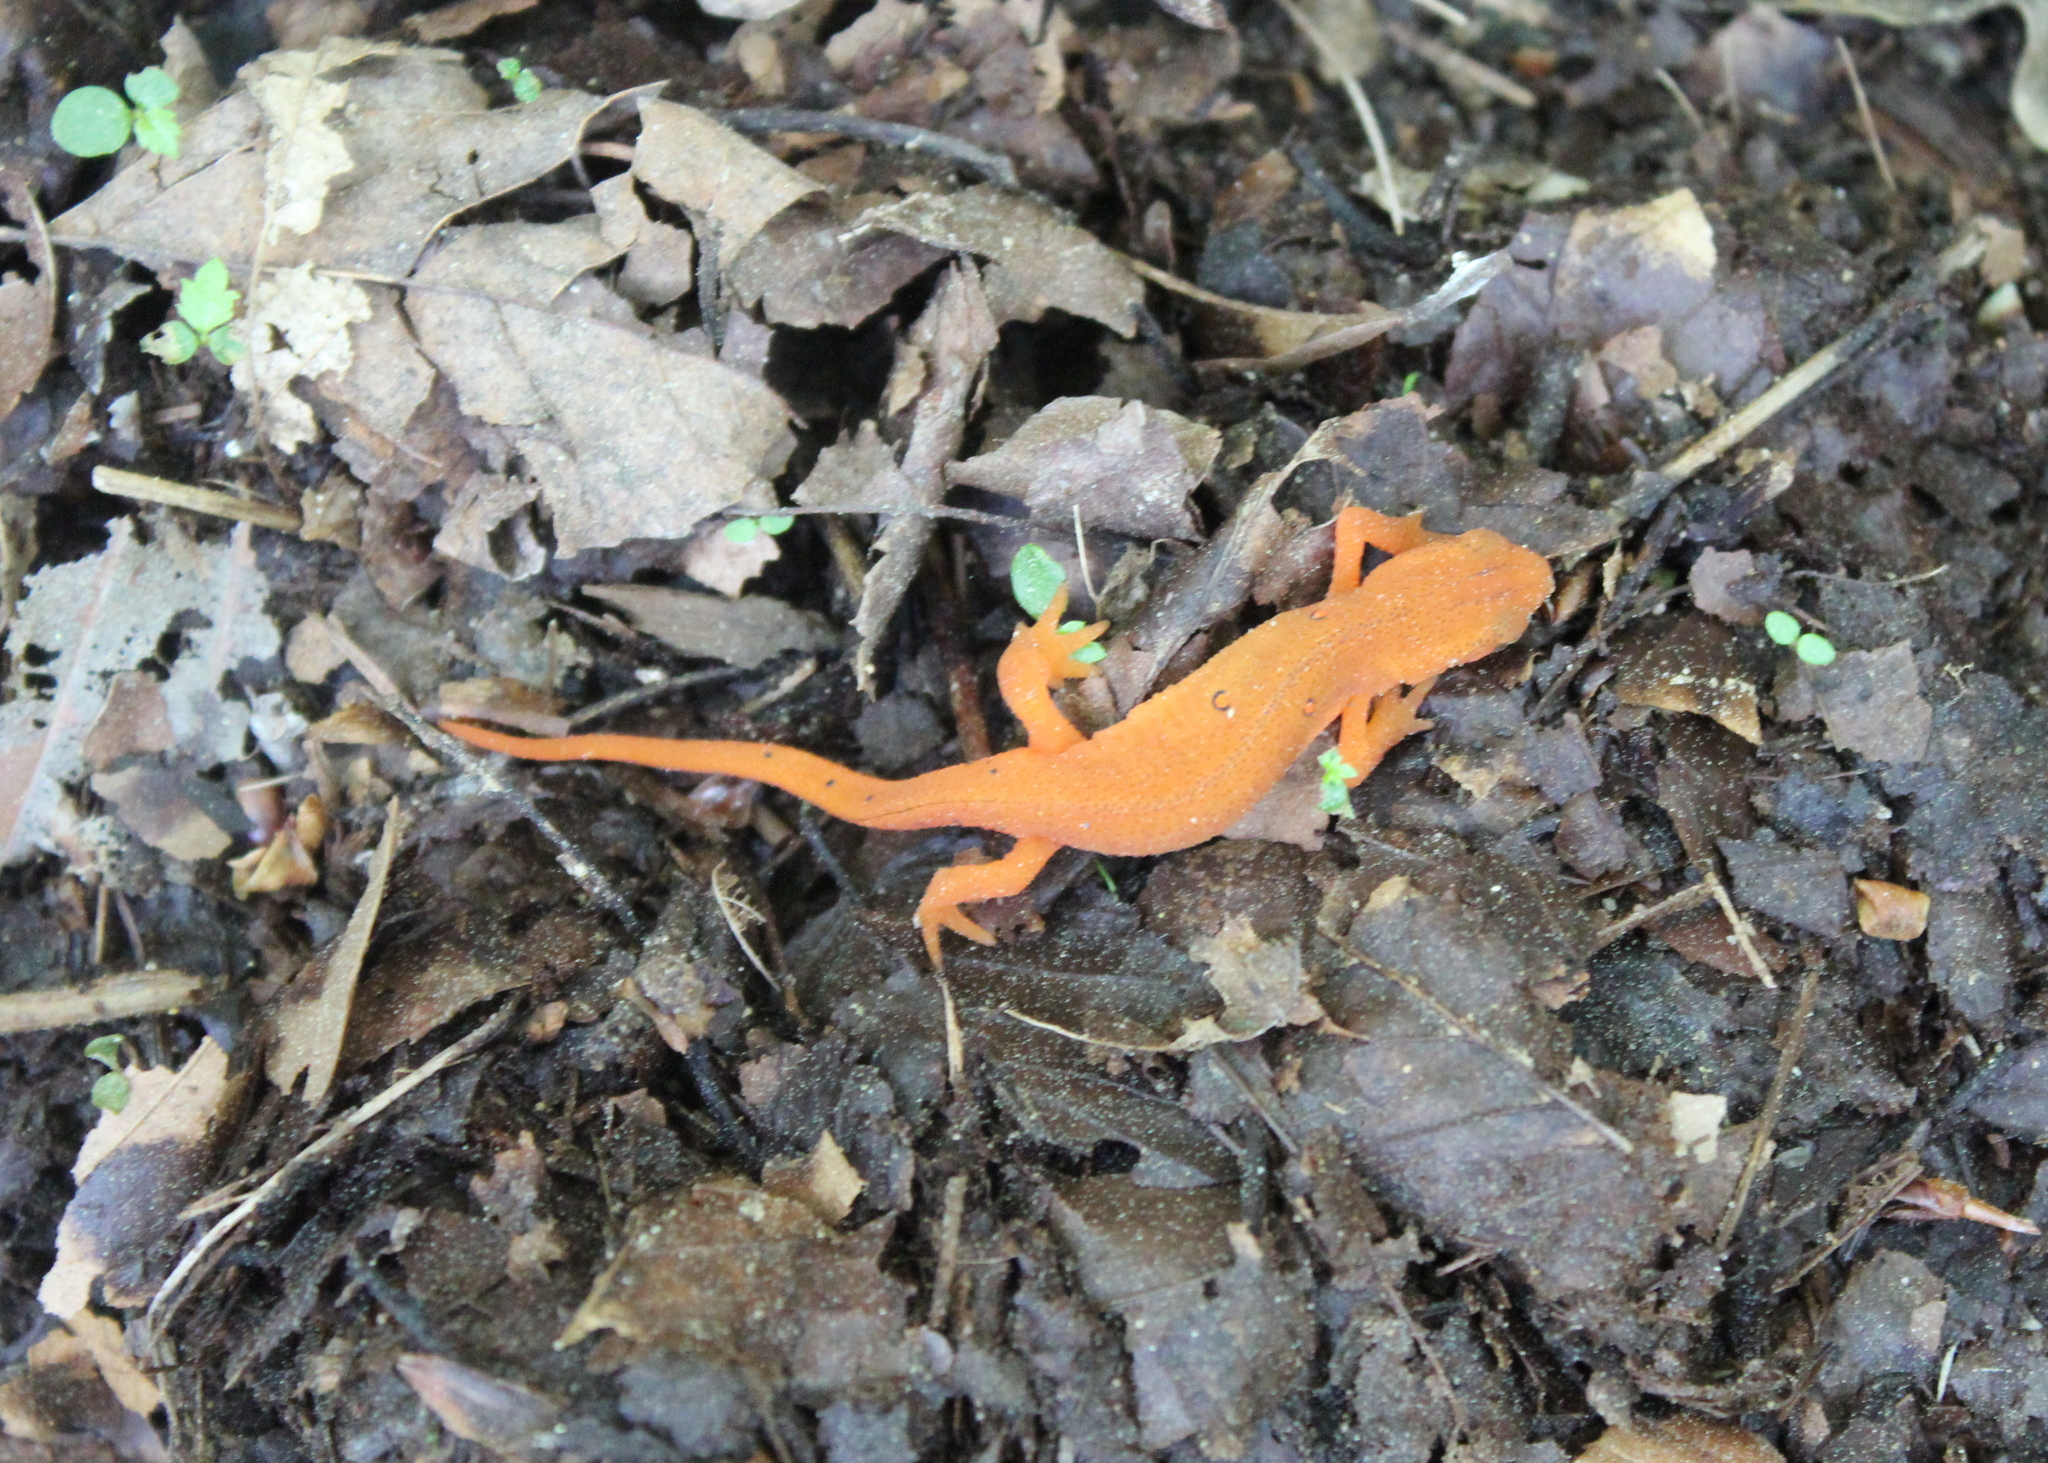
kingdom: Animalia
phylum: Chordata
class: Amphibia
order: Caudata
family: Salamandridae
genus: Notophthalmus
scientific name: Notophthalmus viridescens
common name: Eastern newt
